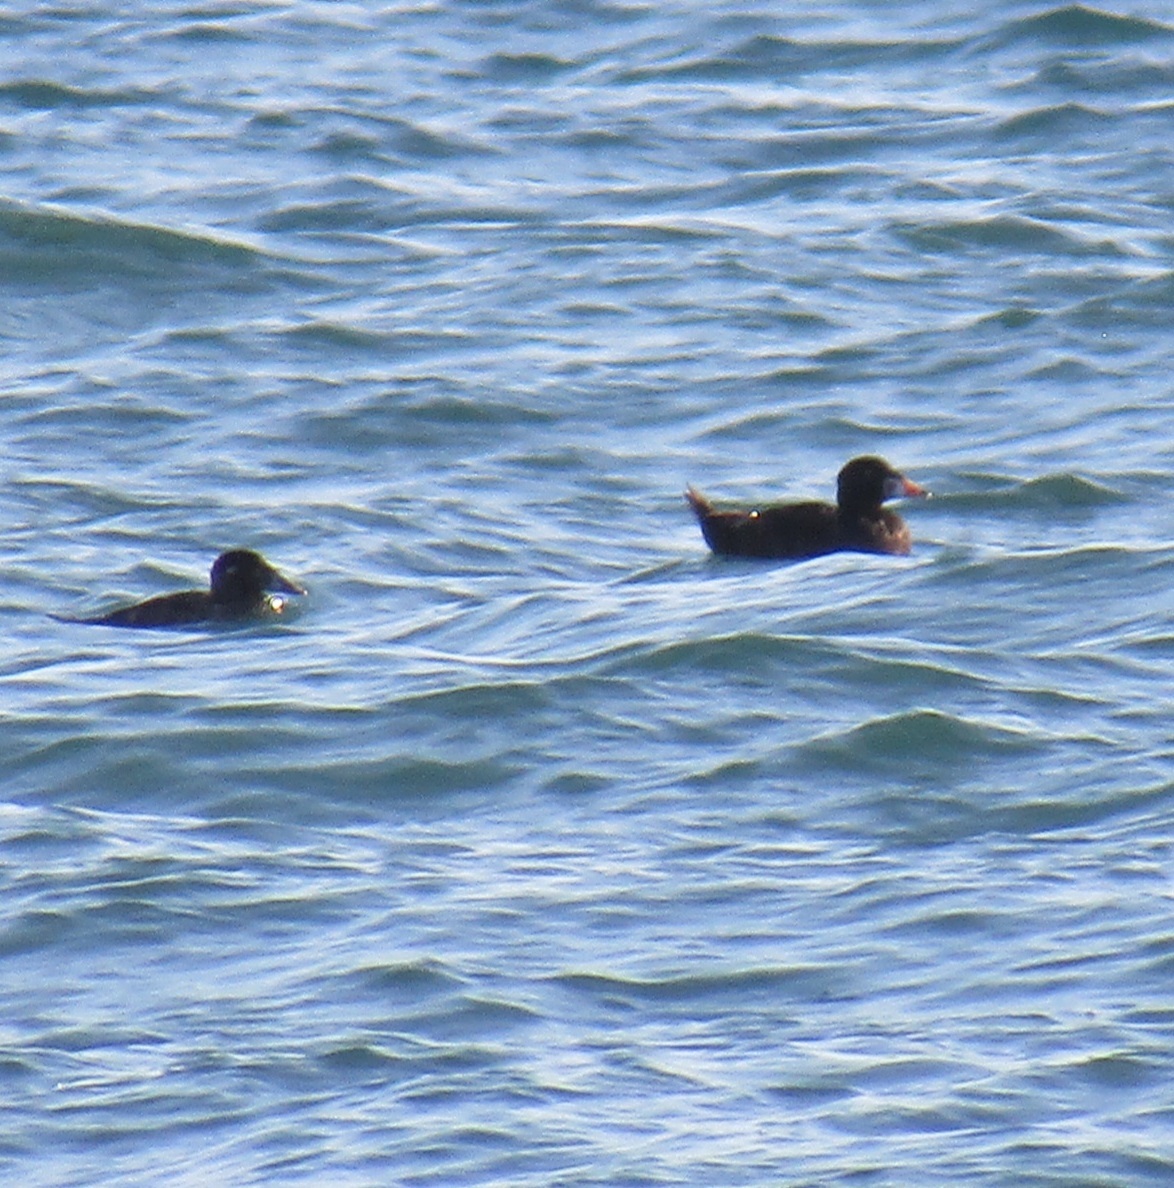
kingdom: Animalia
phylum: Chordata
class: Aves
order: Anseriformes
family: Anatidae
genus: Melanitta
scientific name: Melanitta perspicillata
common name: Surf scoter
